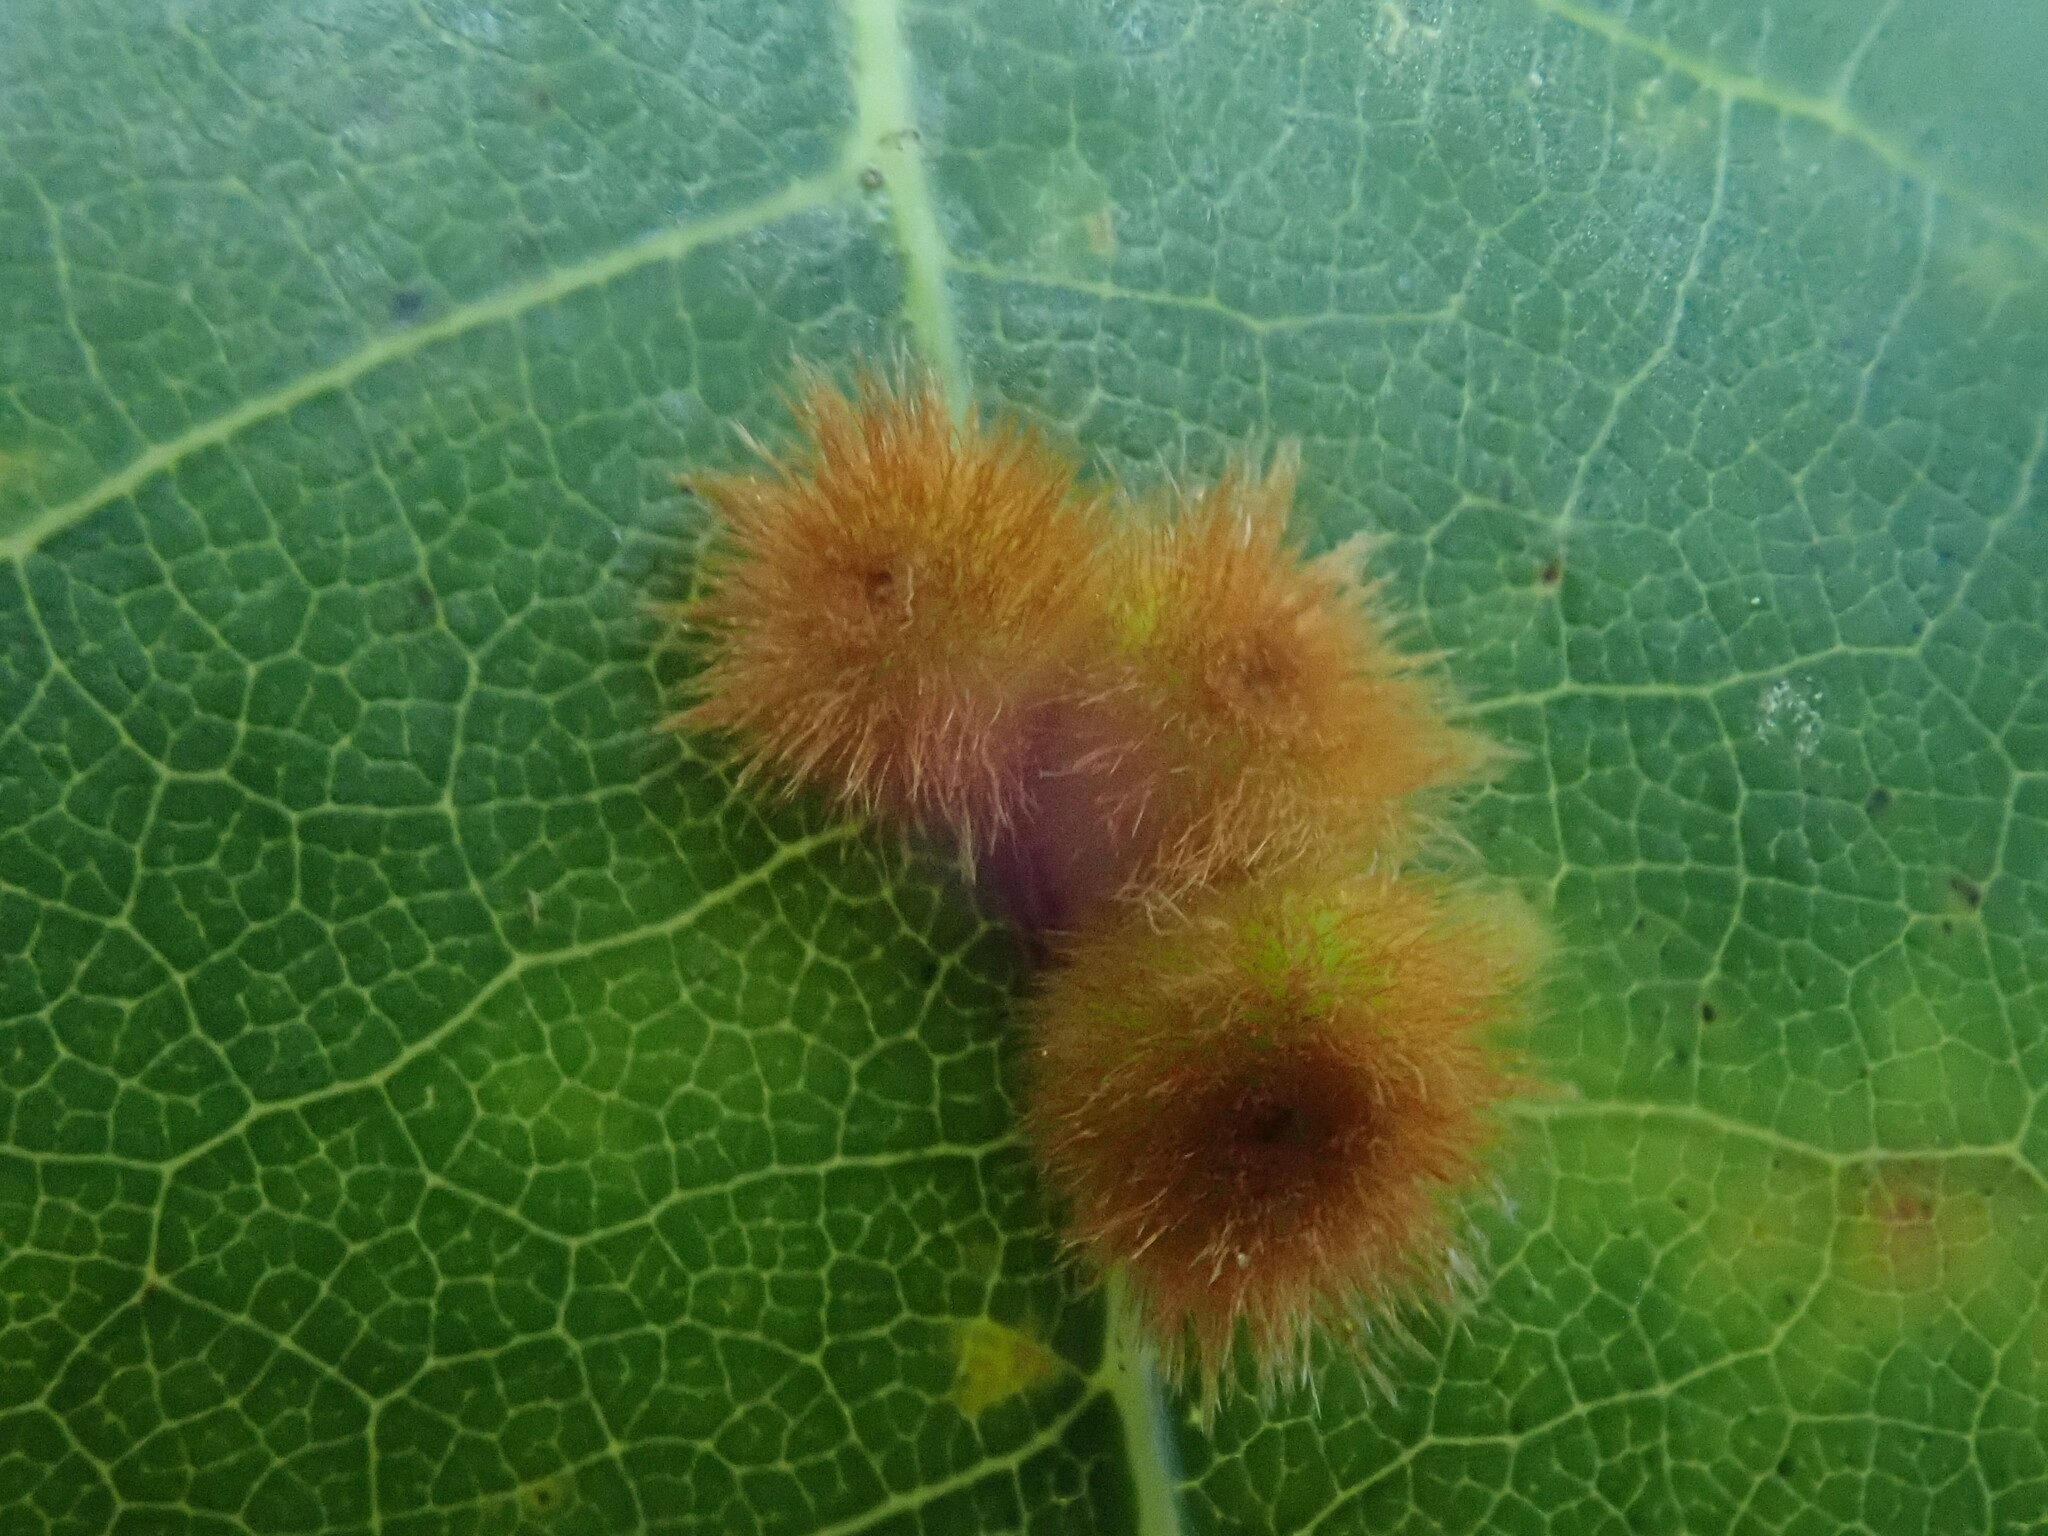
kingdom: Animalia
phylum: Arthropoda
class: Insecta
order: Hymenoptera
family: Cynipidae
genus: Callirhytis
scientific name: Callirhytis
